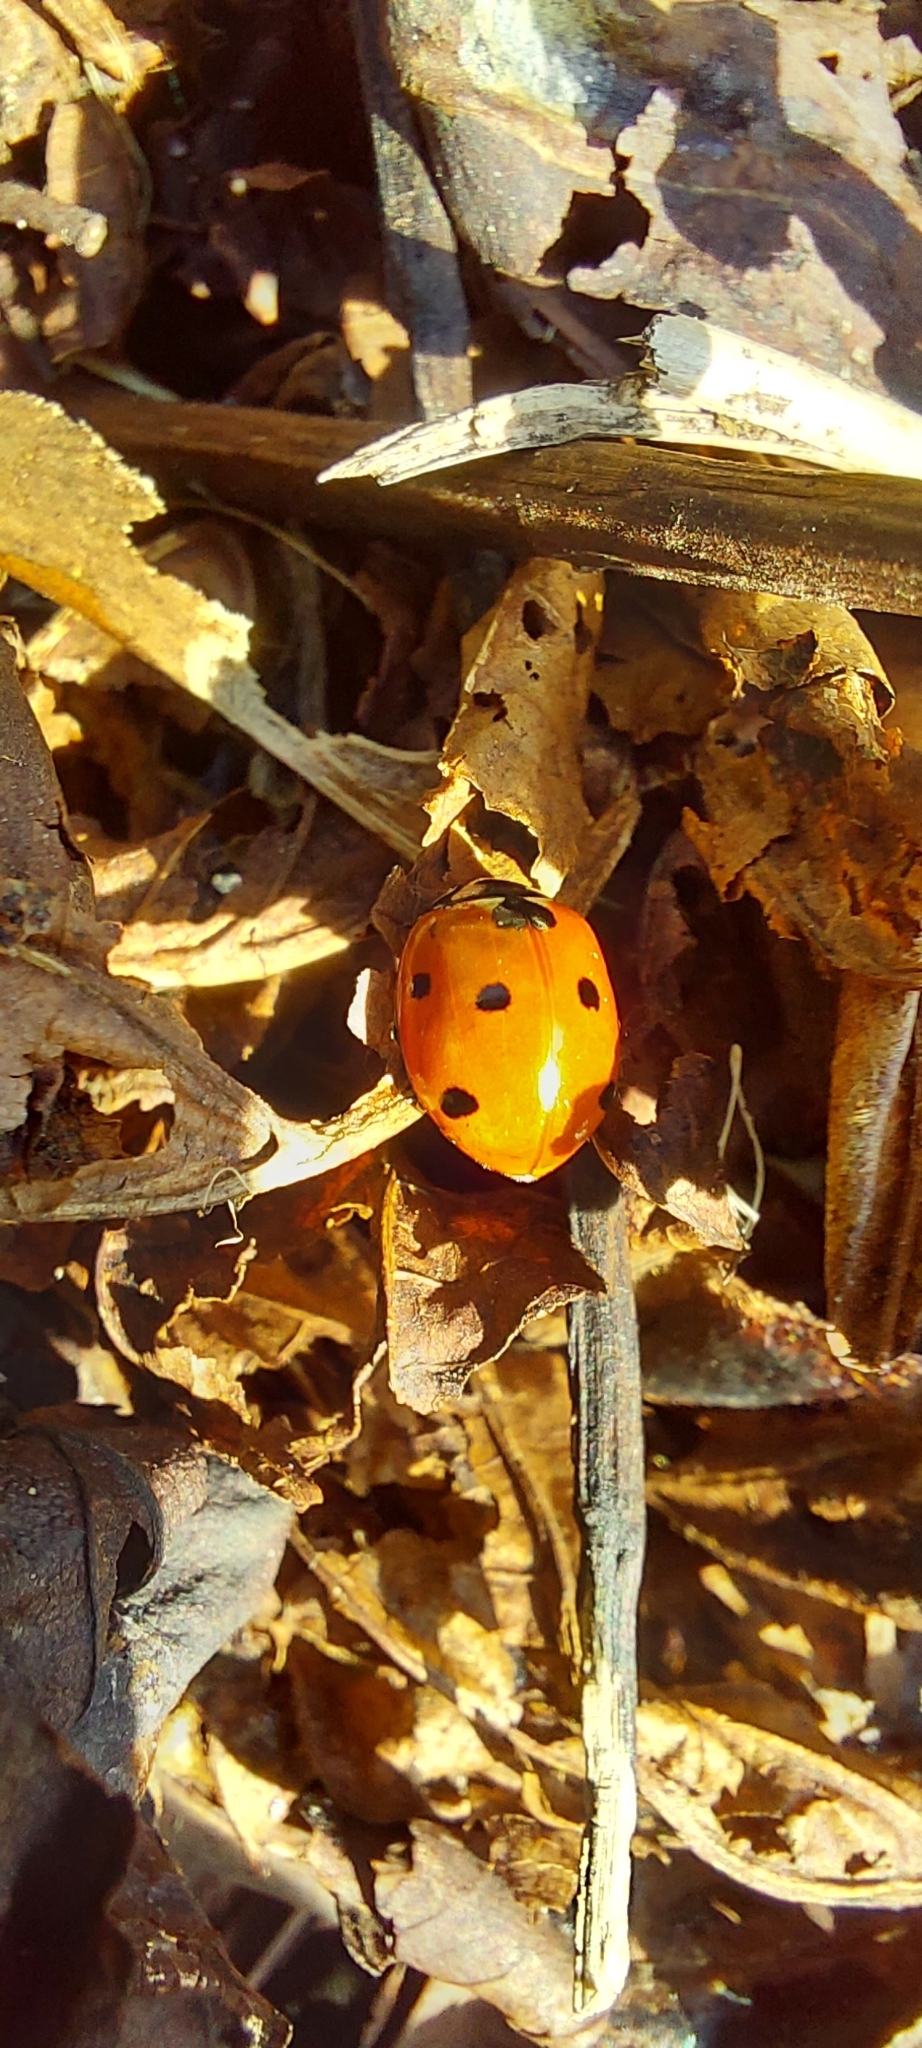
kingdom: Animalia
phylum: Arthropoda
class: Insecta
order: Coleoptera
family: Coccinellidae
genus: Coccinella
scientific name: Coccinella septempunctata
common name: Sevenspotted lady beetle
